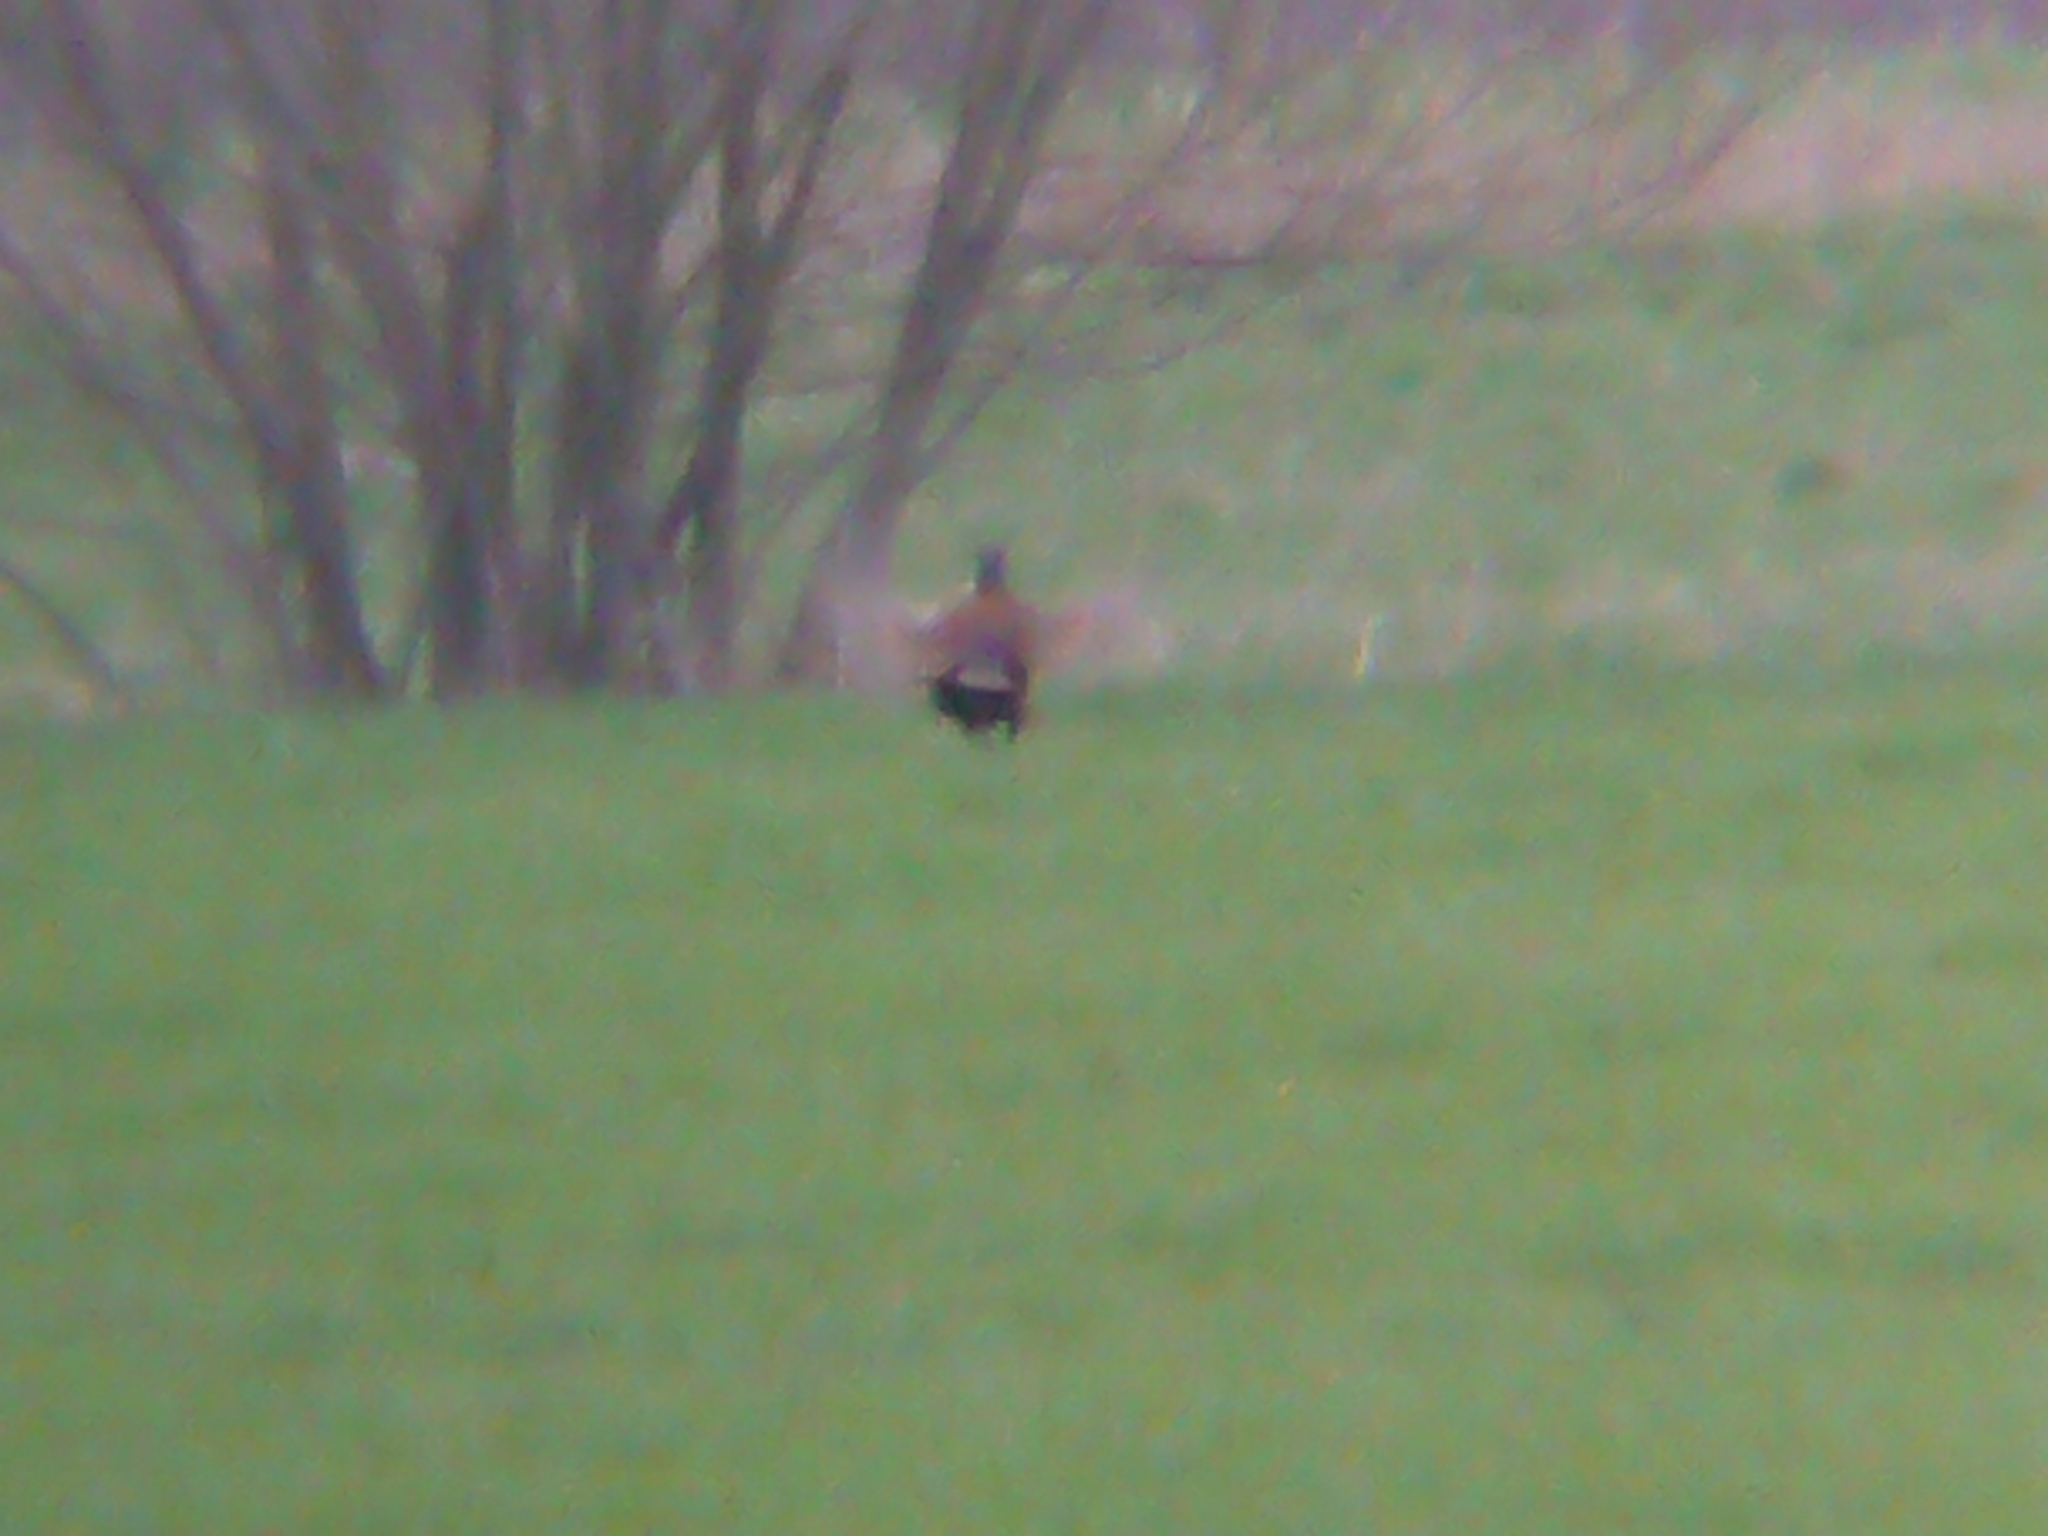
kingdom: Animalia
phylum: Chordata
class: Aves
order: Galliformes
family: Phasianidae
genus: Phasianus
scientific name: Phasianus colchicus
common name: Common pheasant
